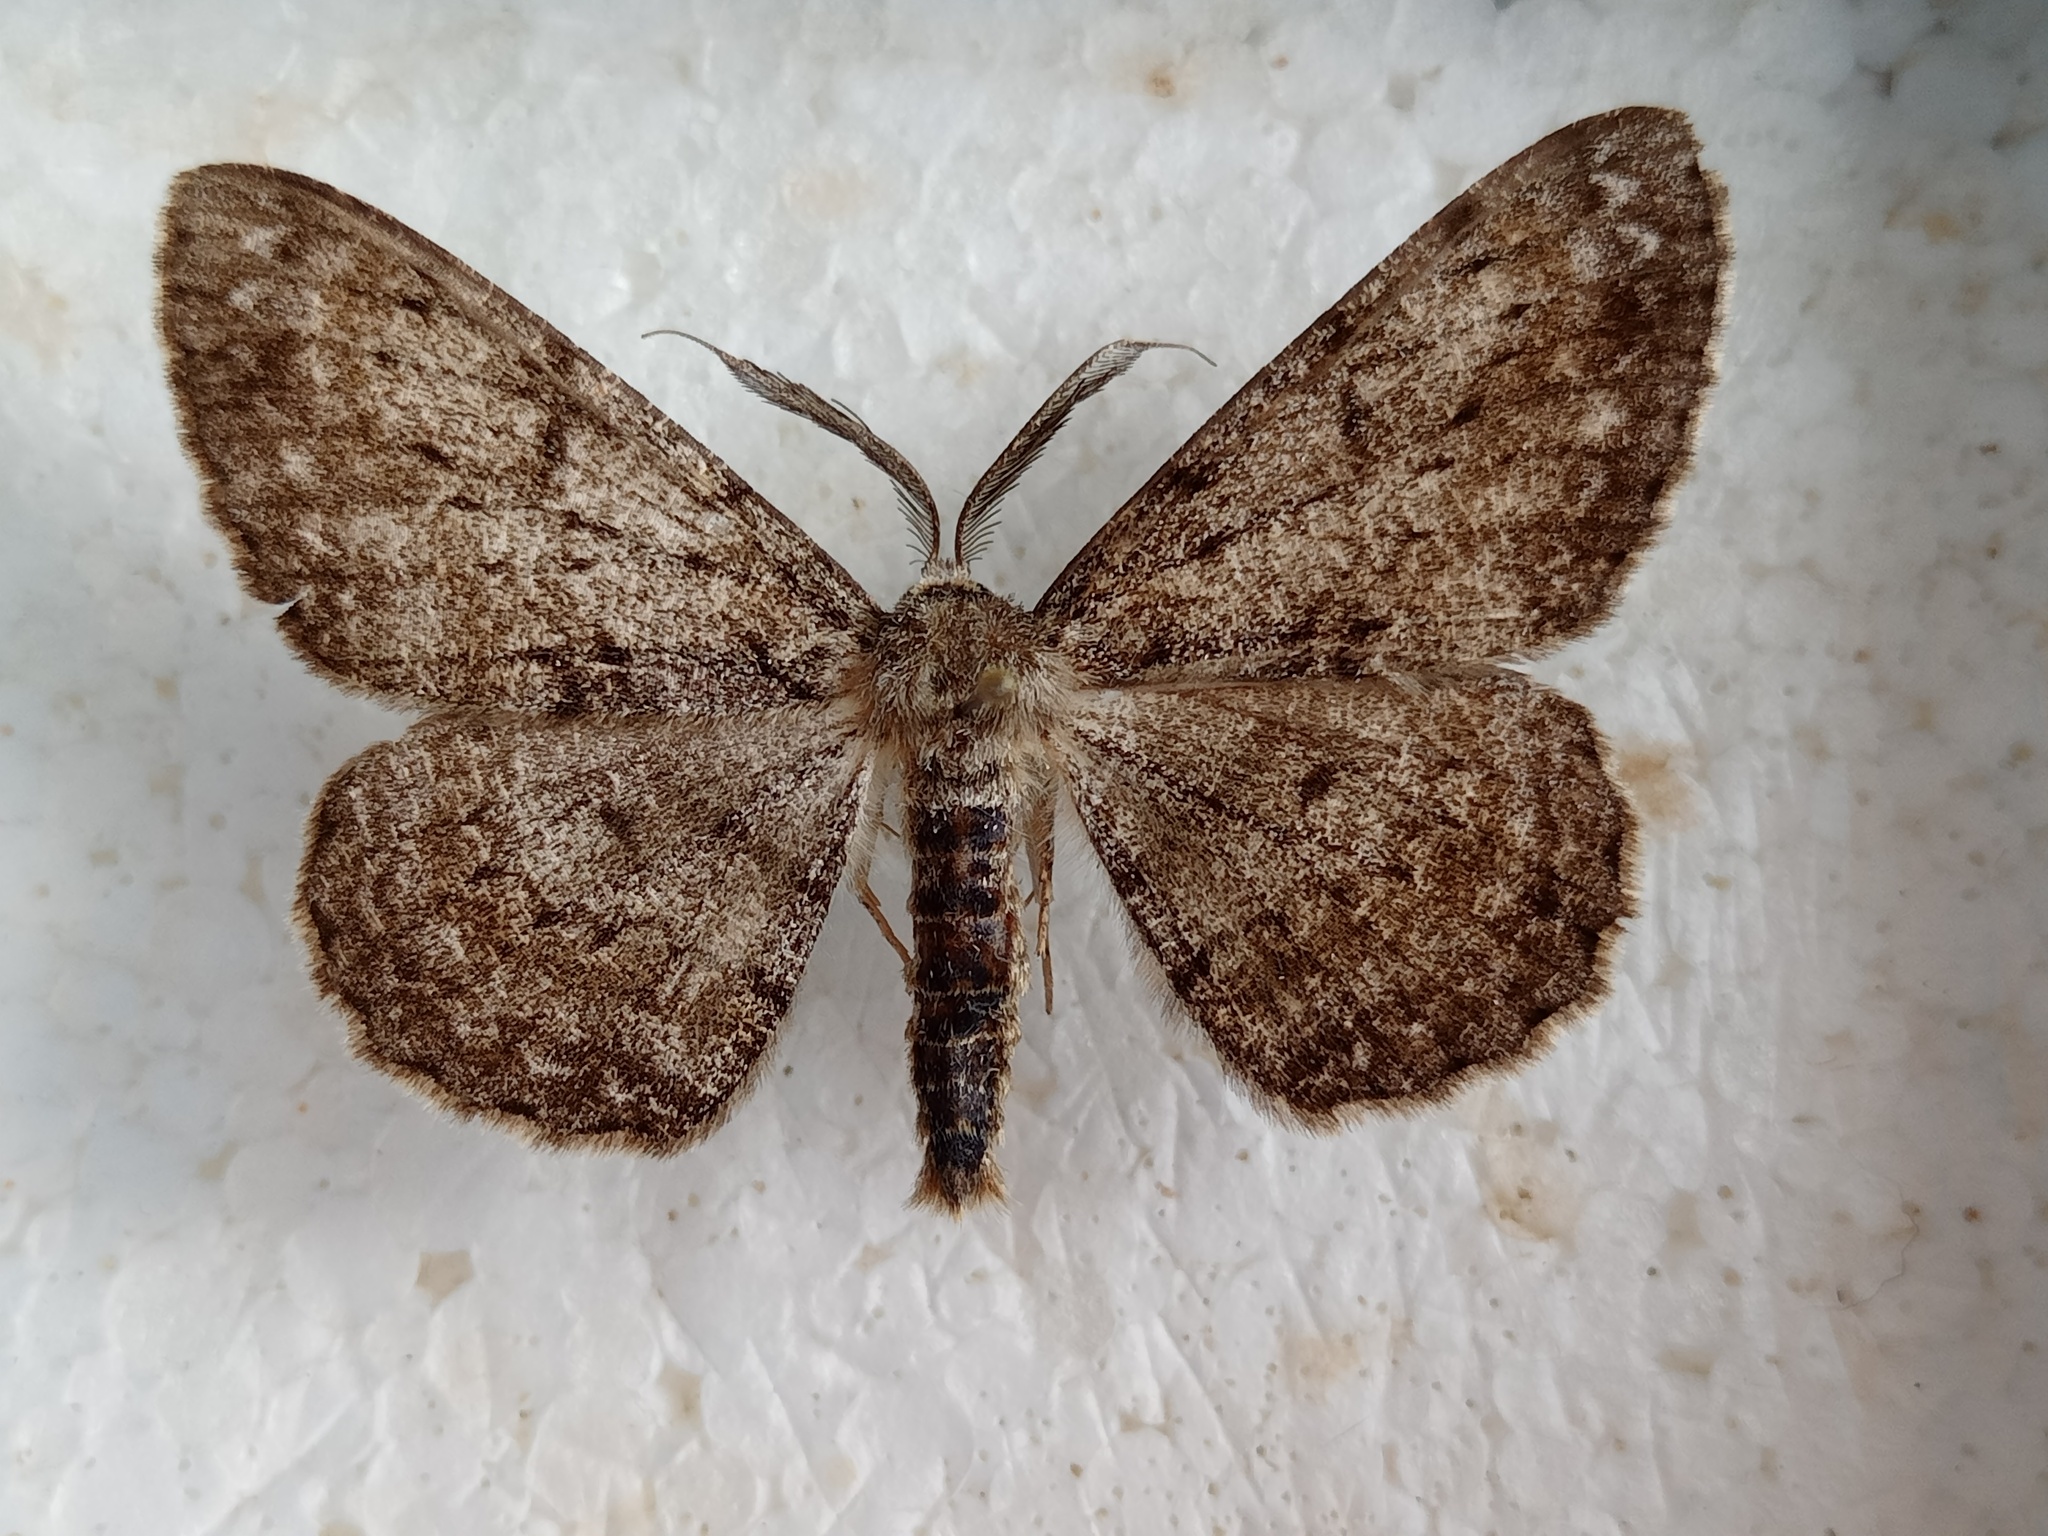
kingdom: Animalia
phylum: Arthropoda
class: Insecta
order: Lepidoptera
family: Geometridae
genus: Hypomecis
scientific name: Hypomecis roboraria
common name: Great oak beauty
